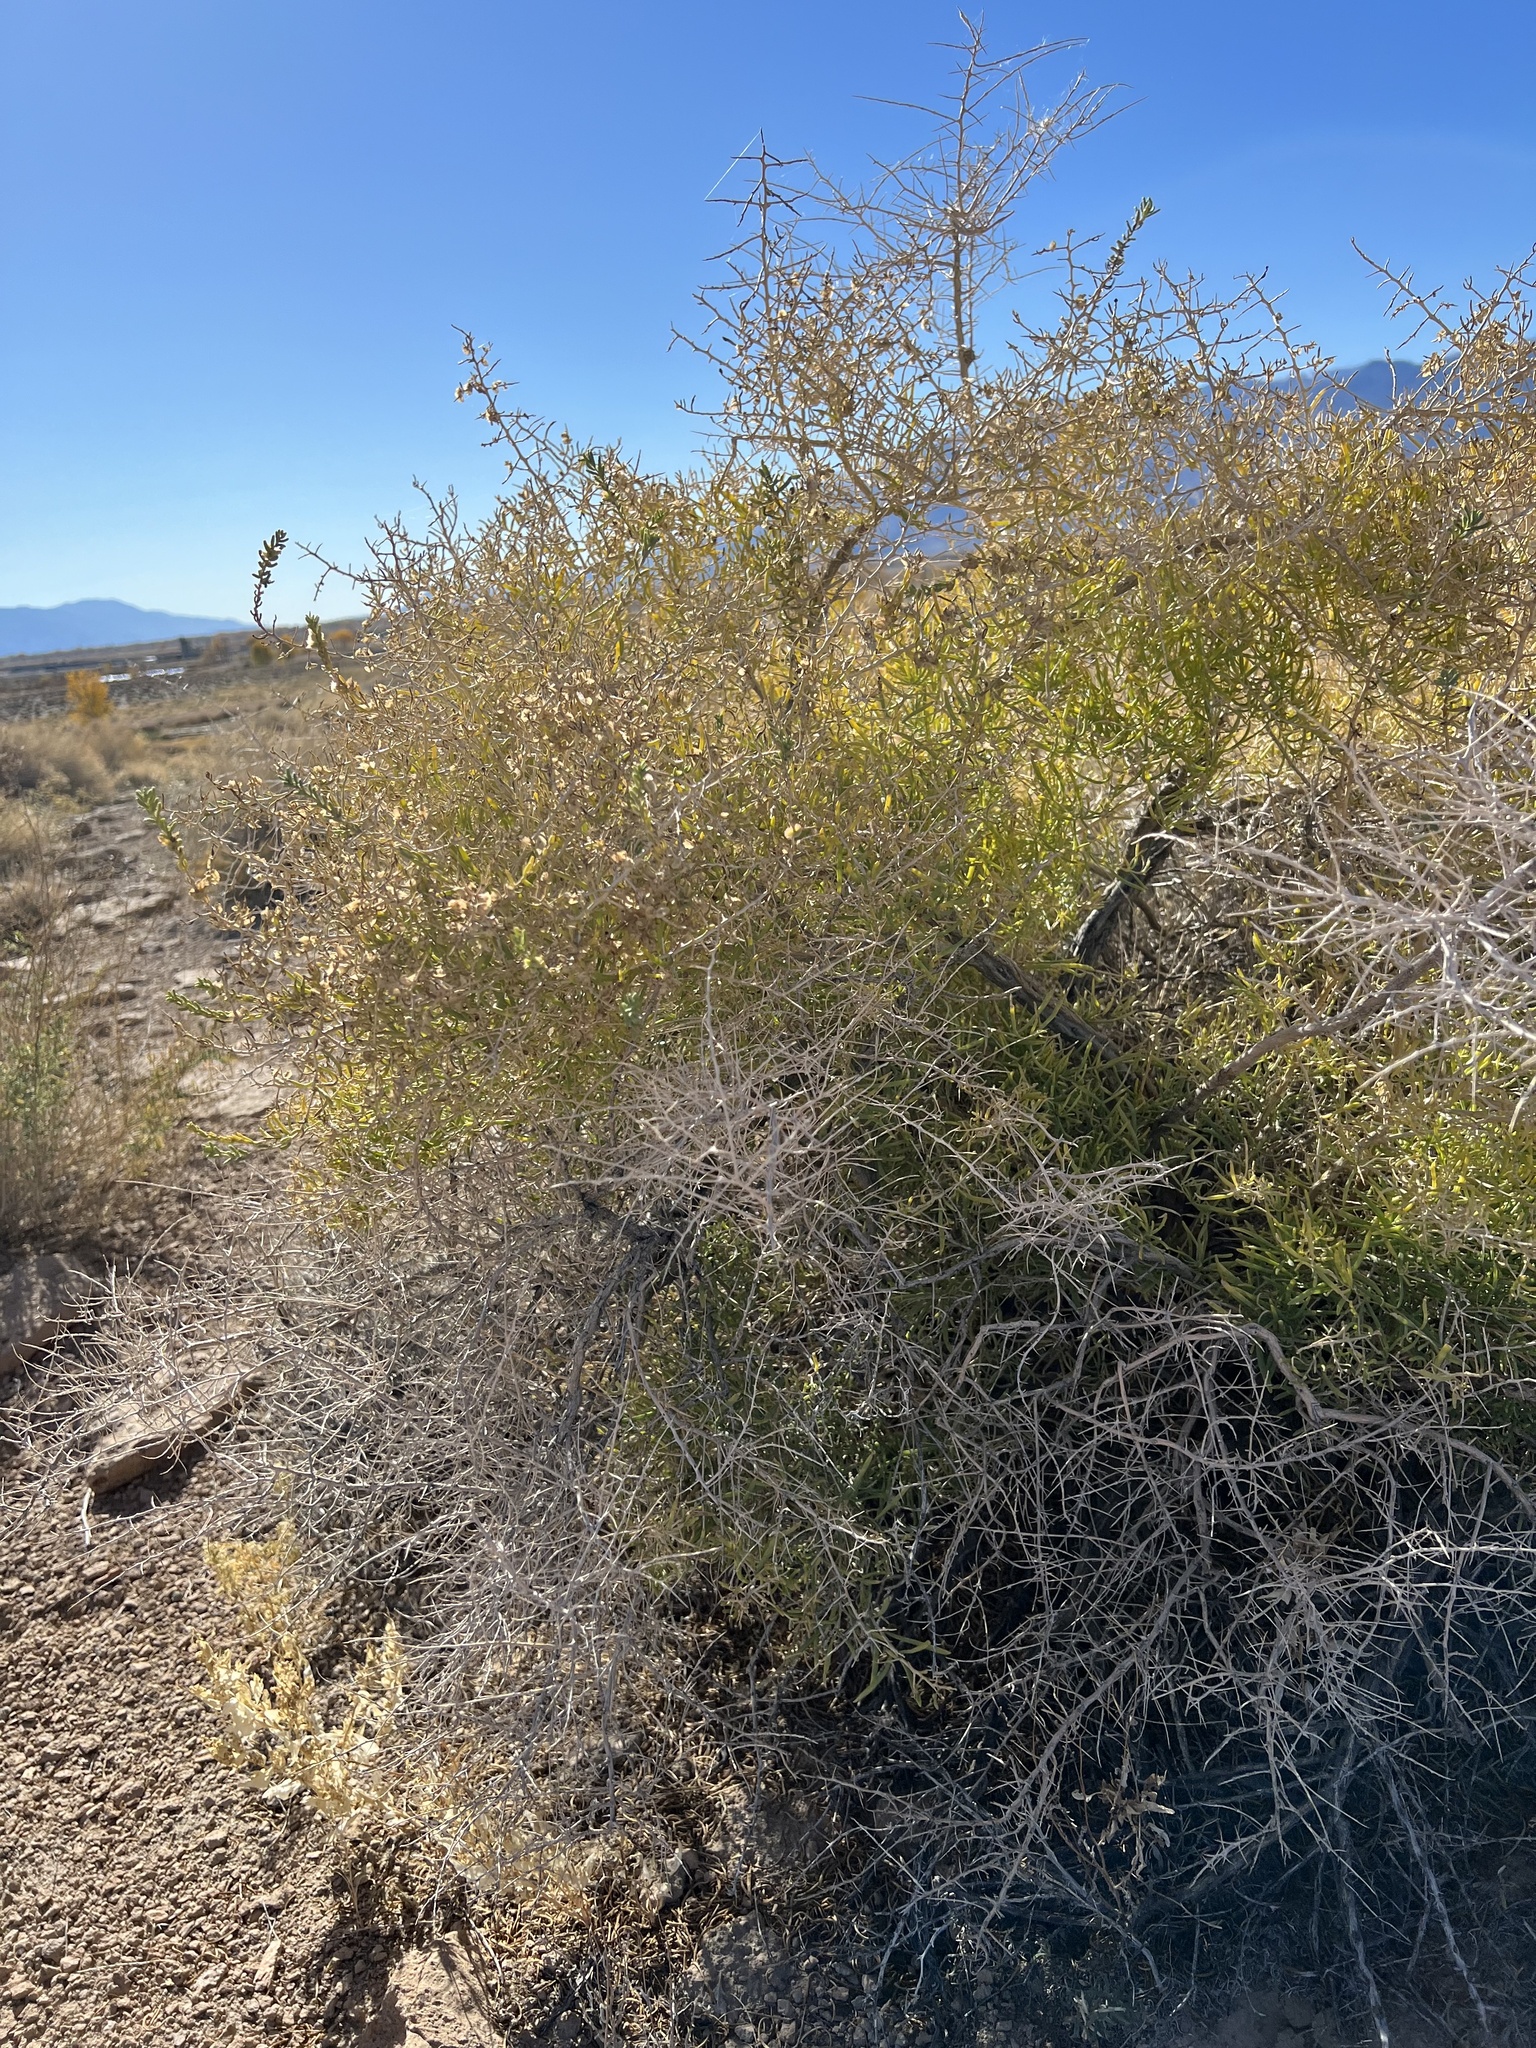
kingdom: Plantae
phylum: Tracheophyta
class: Magnoliopsida
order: Caryophyllales
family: Sarcobataceae
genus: Sarcobatus
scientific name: Sarcobatus vermiculatus
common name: Greasewood
